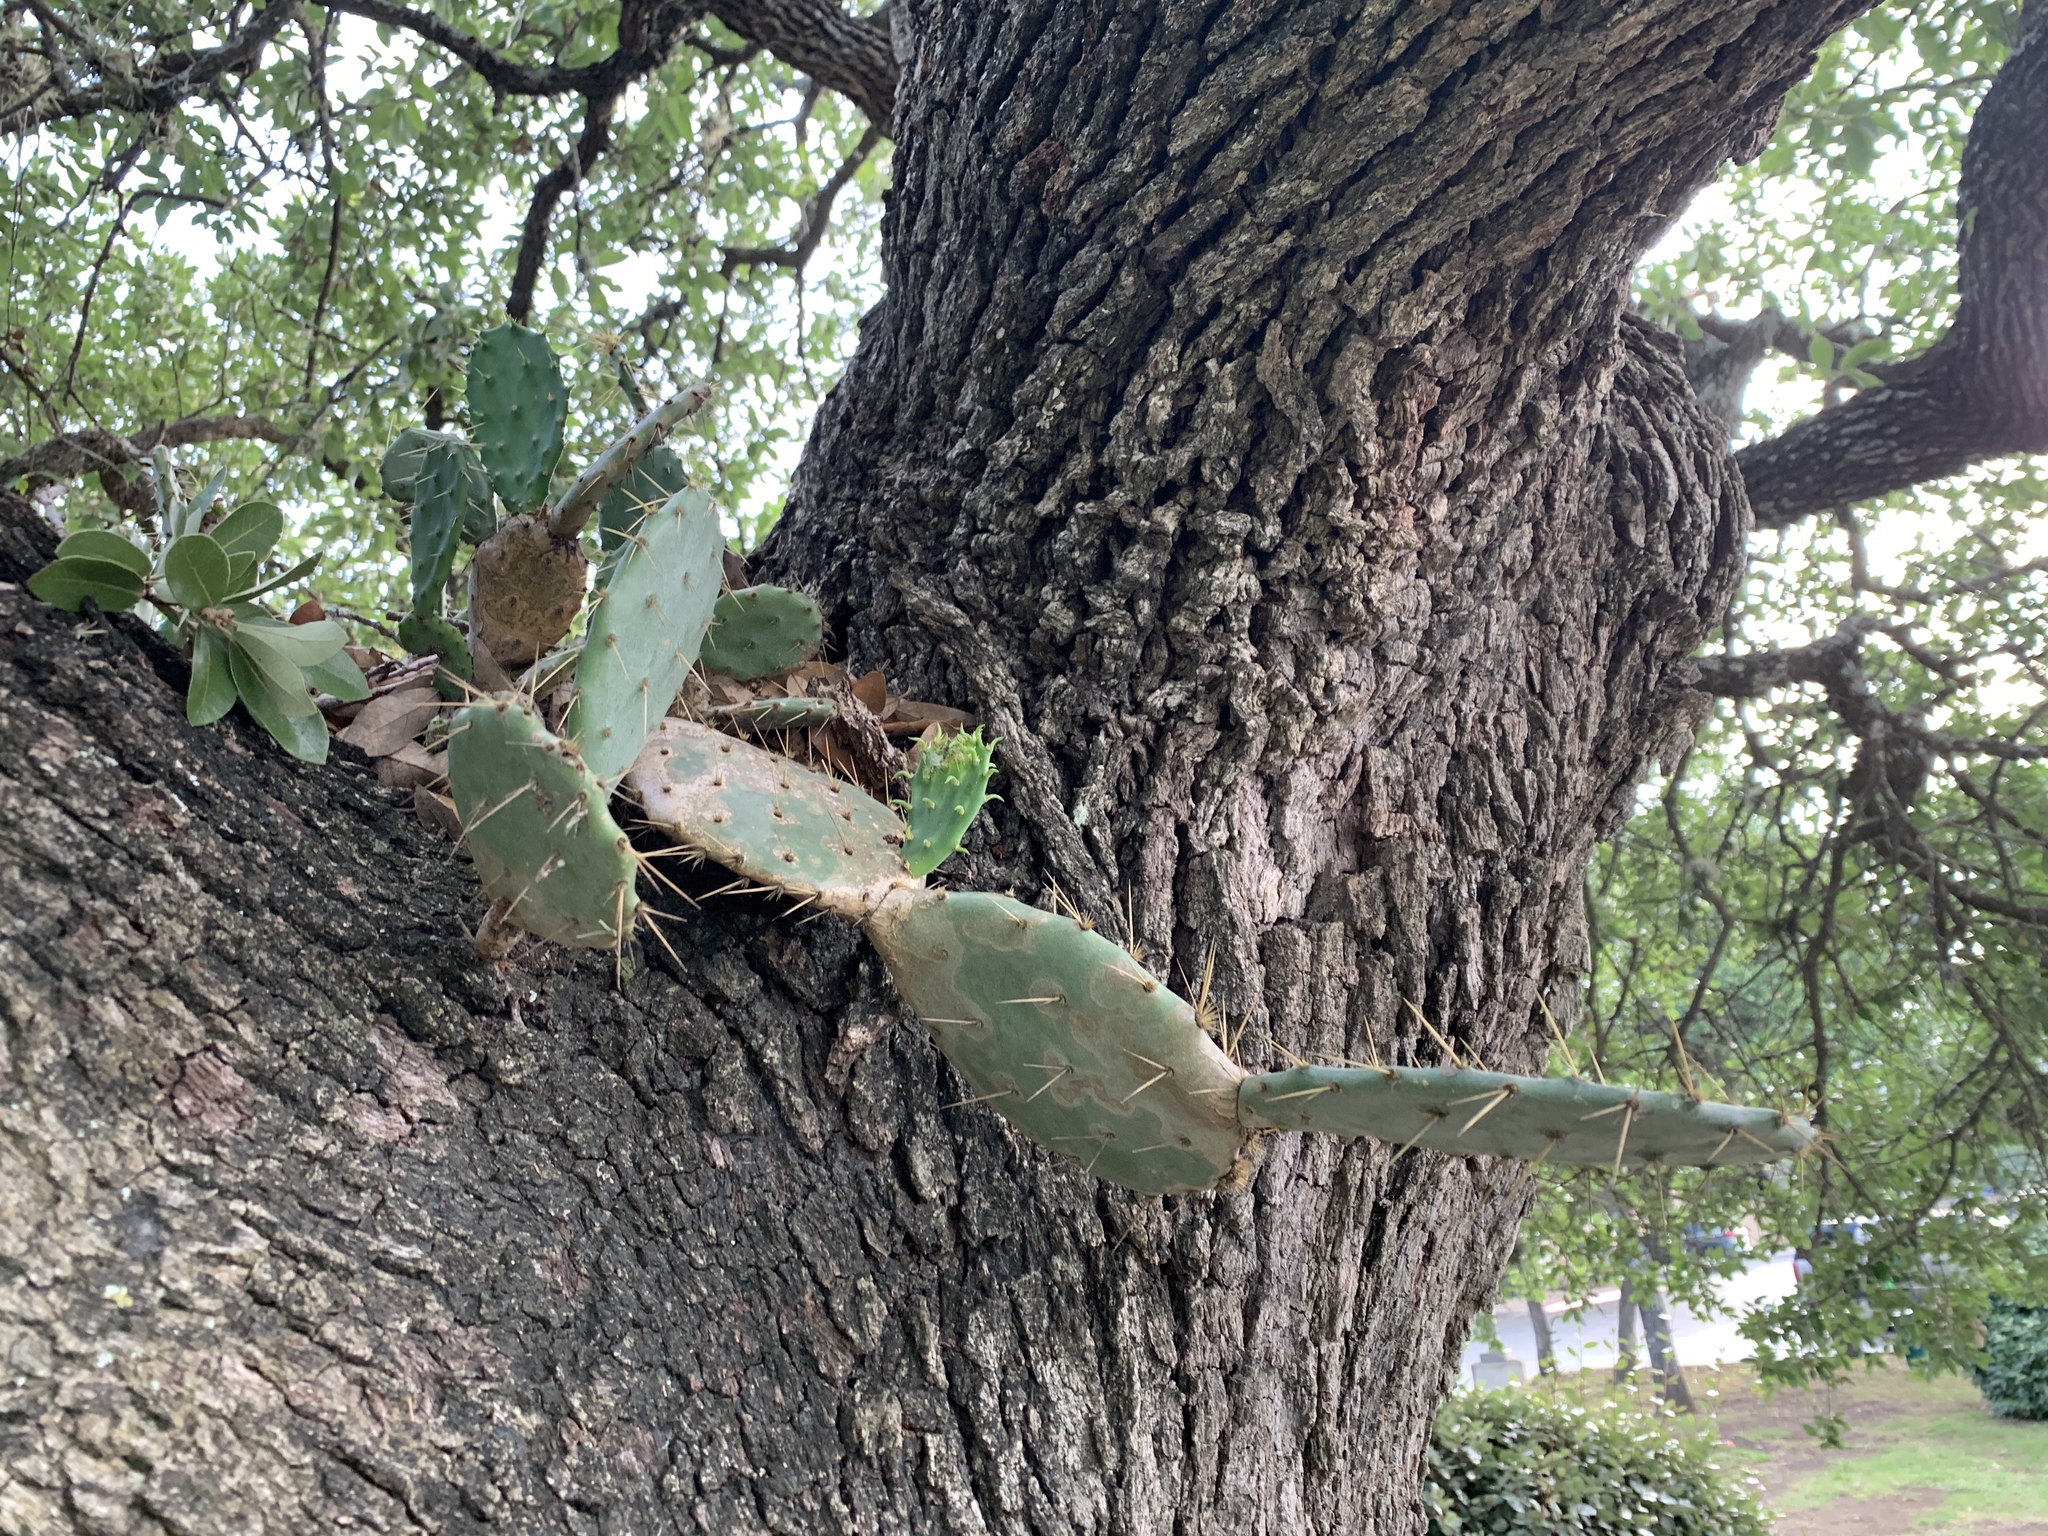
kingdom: Plantae
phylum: Tracheophyta
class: Magnoliopsida
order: Caryophyllales
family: Cactaceae
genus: Opuntia
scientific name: Opuntia engelmannii
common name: Cactus-apple
